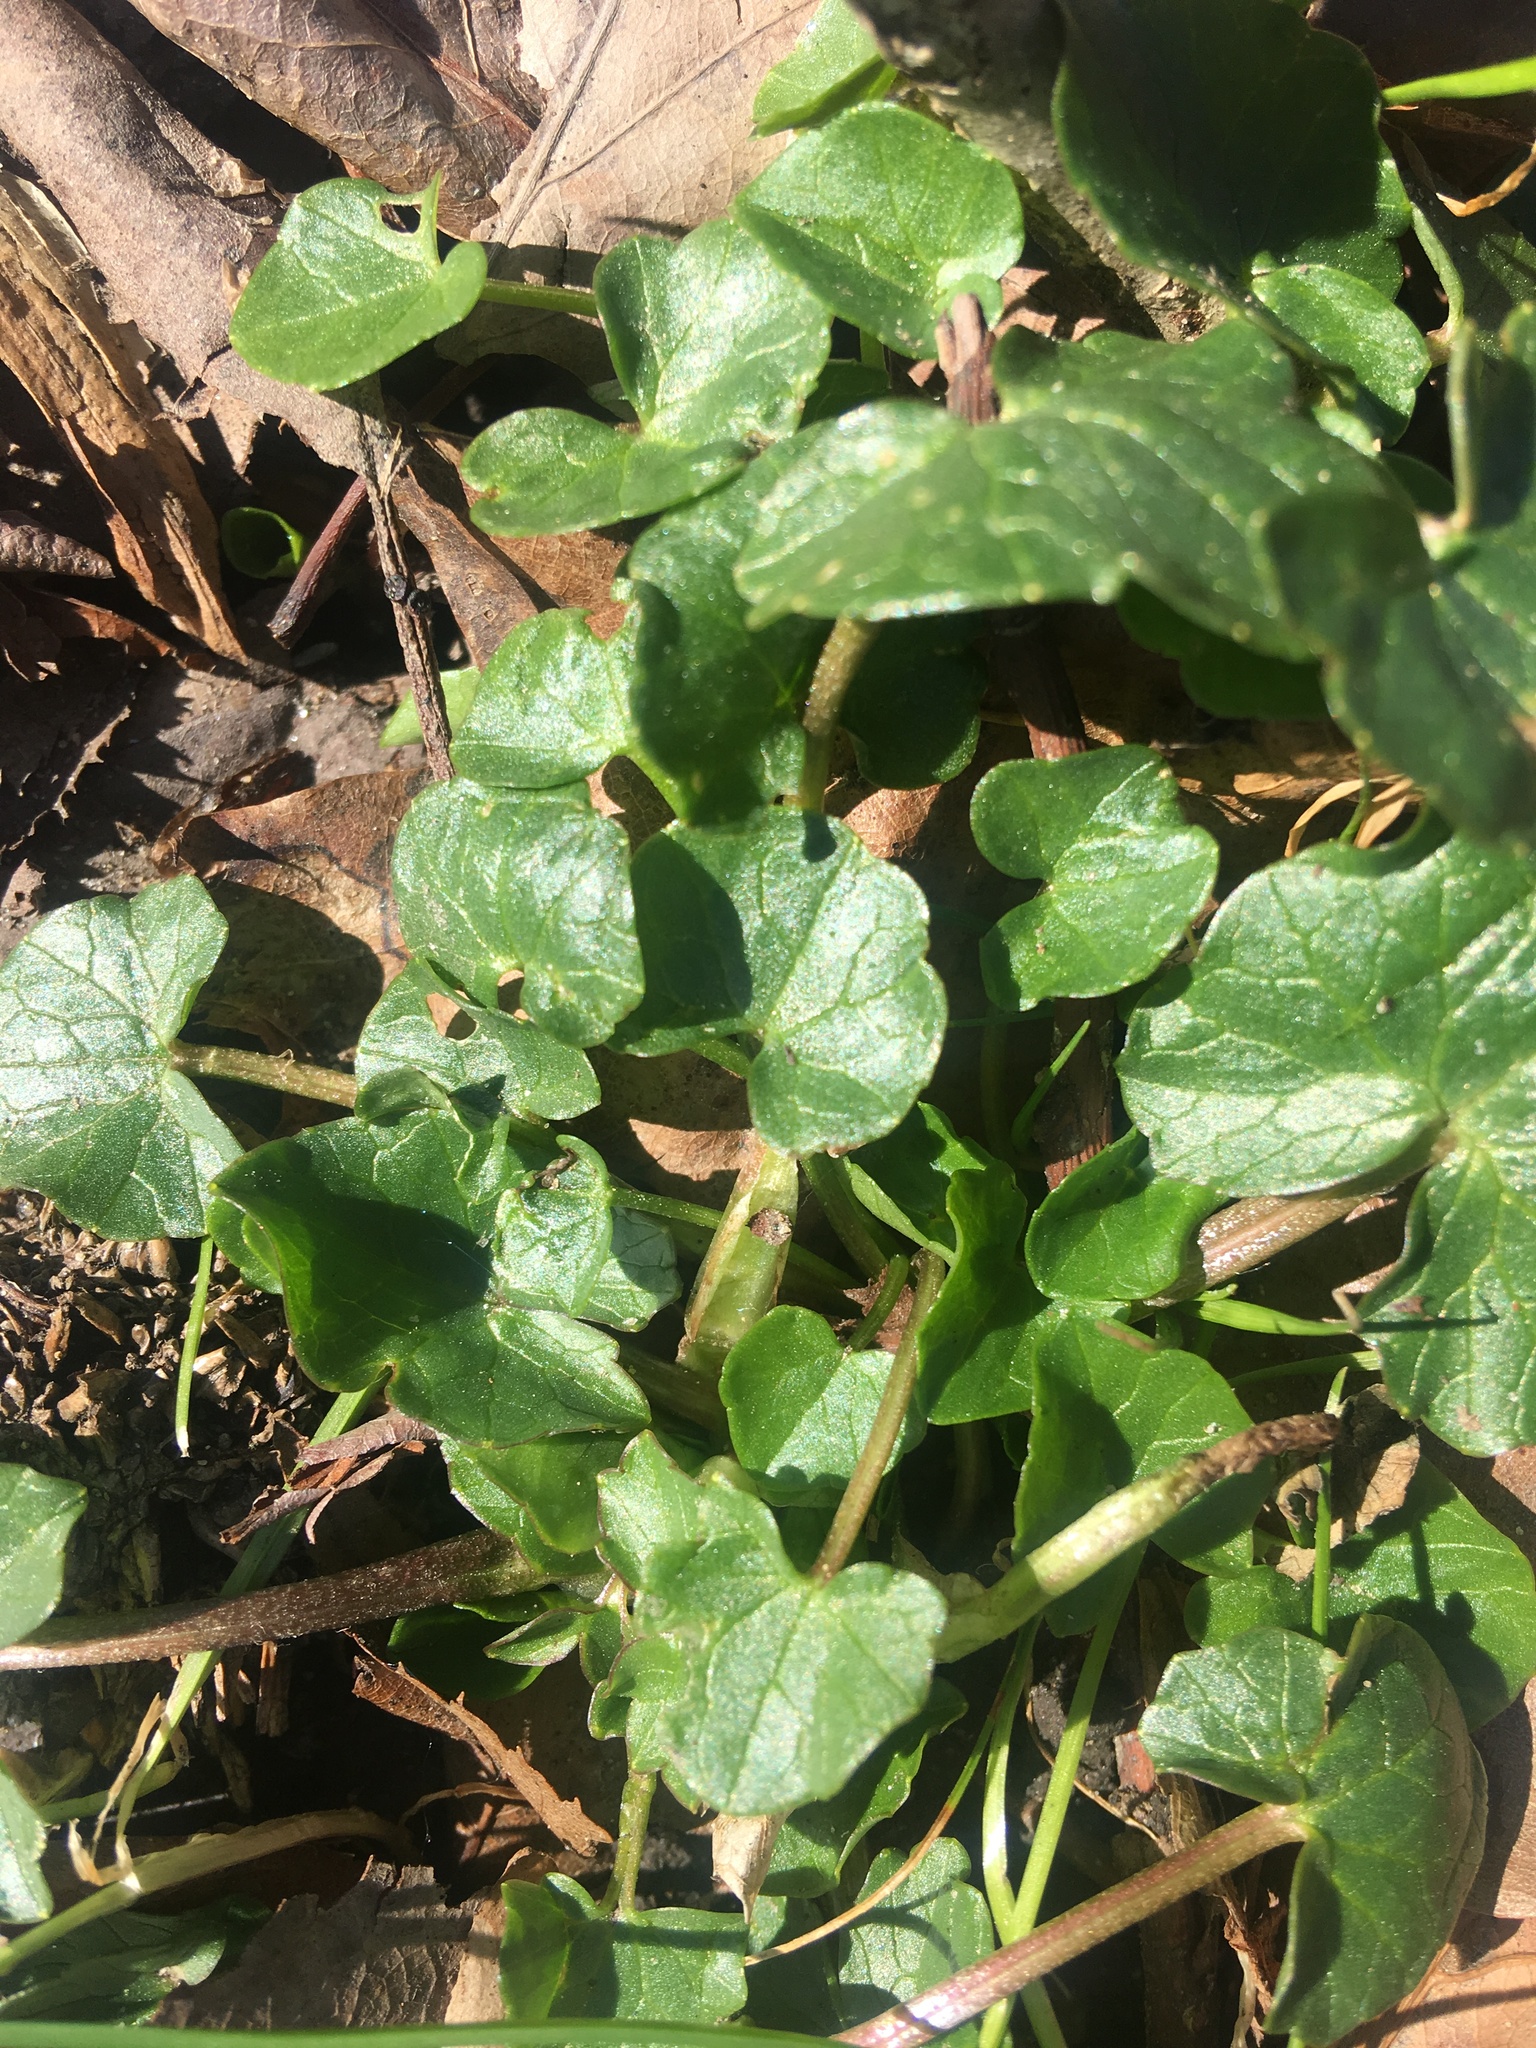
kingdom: Plantae
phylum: Tracheophyta
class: Magnoliopsida
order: Ranunculales
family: Ranunculaceae
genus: Ficaria
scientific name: Ficaria verna
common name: Lesser celandine
